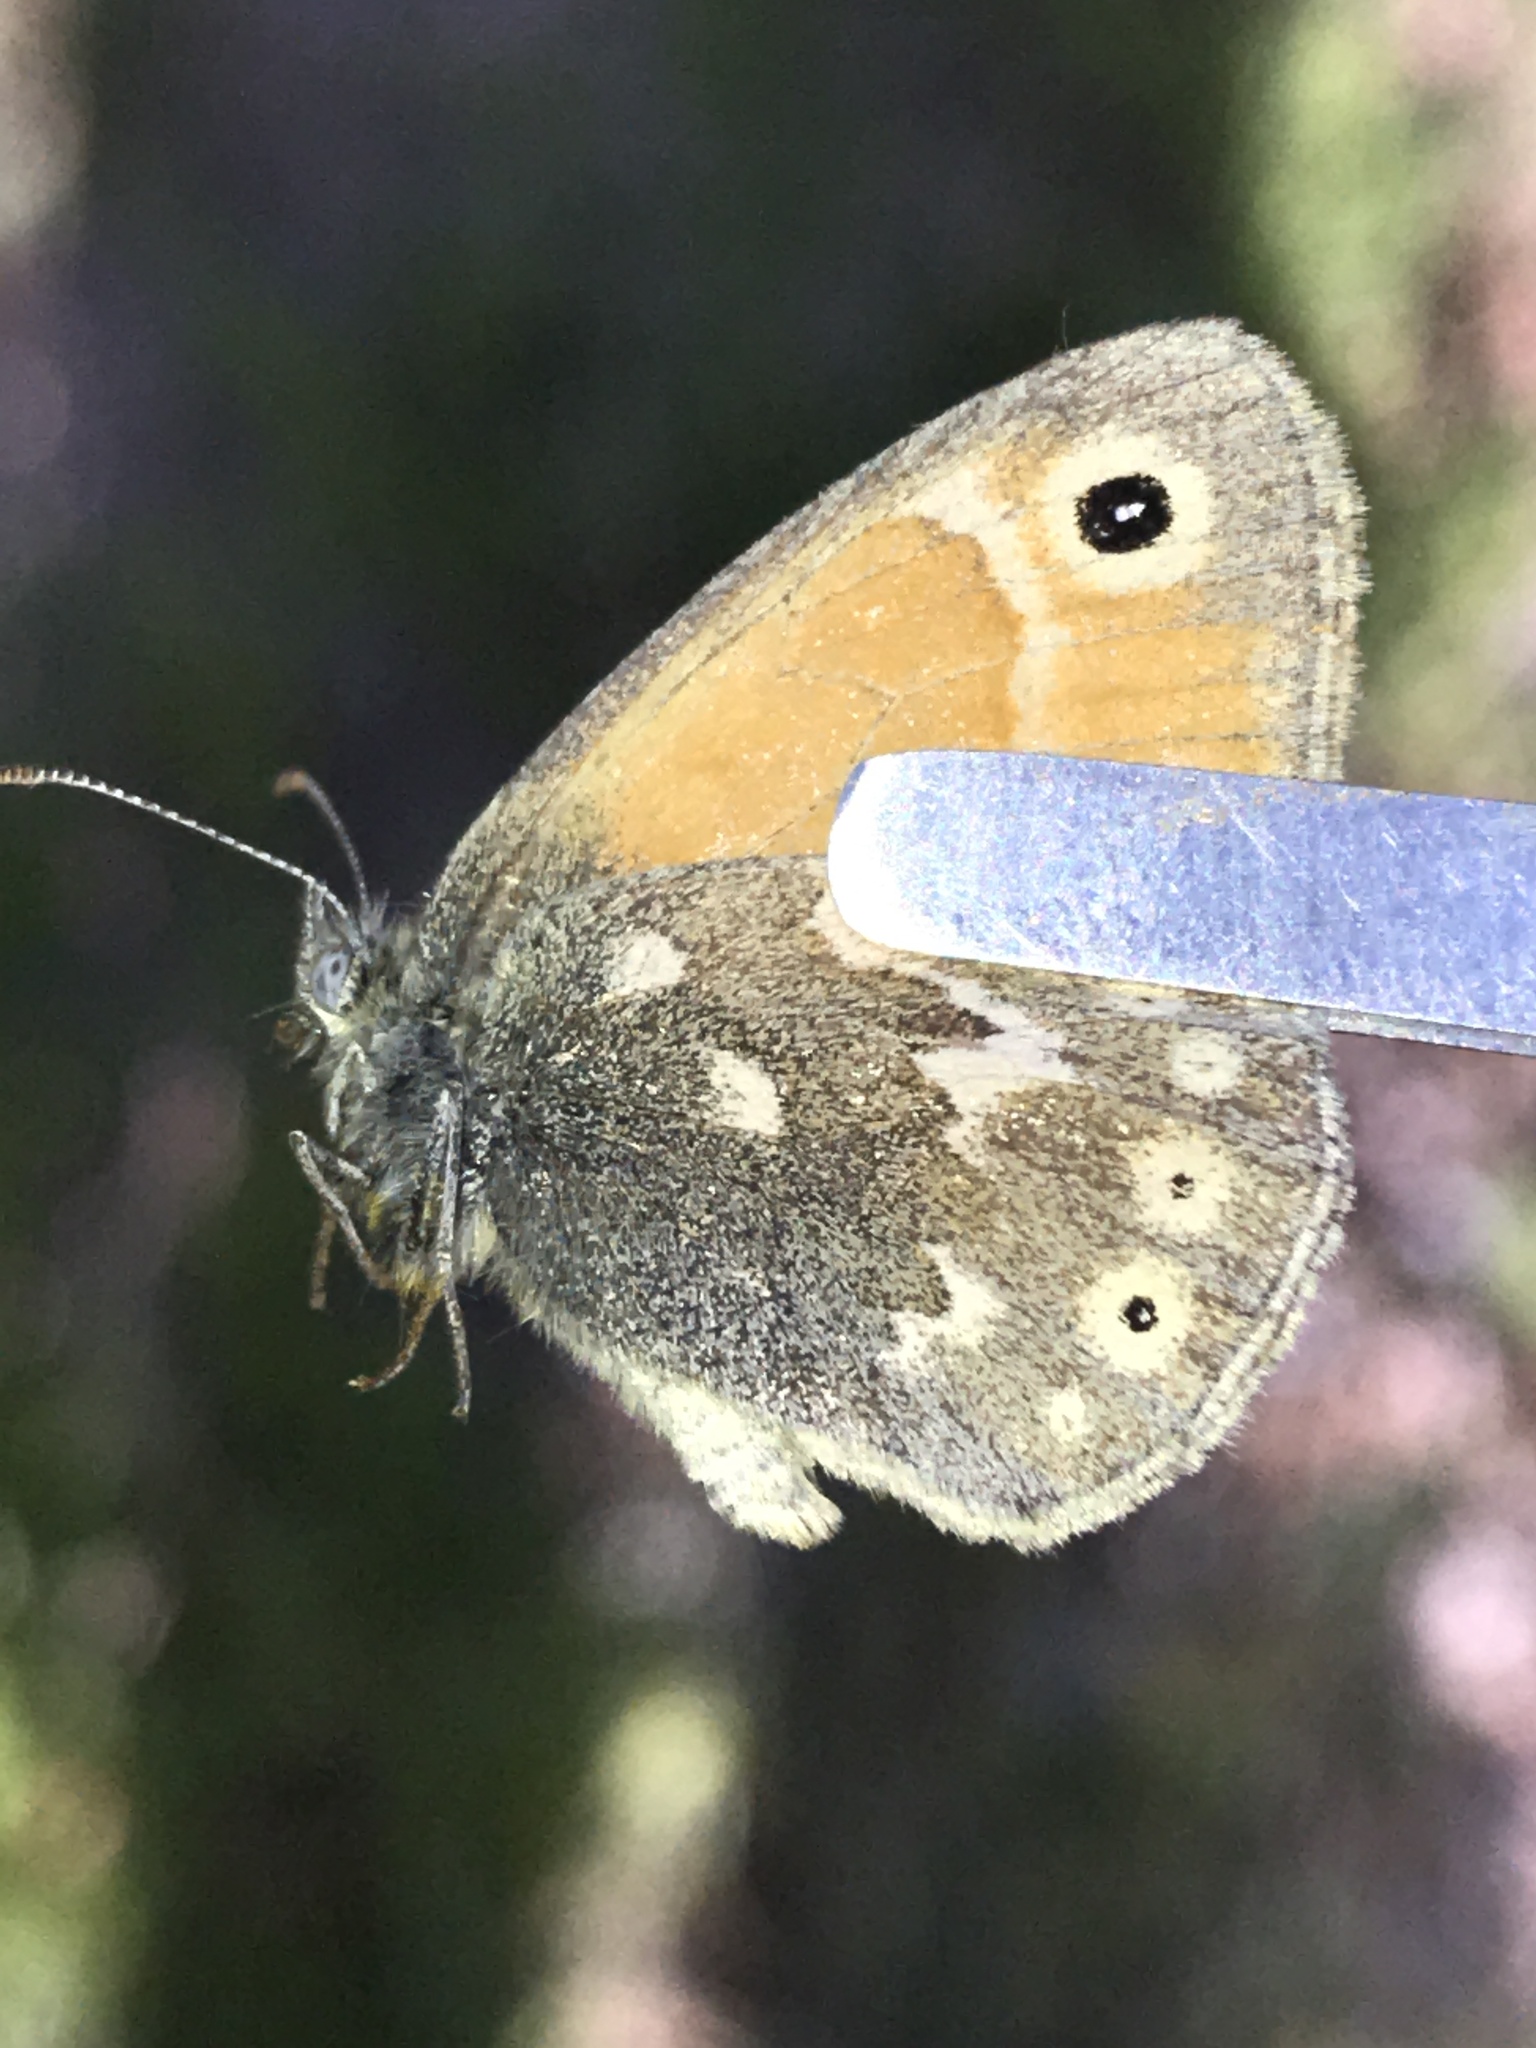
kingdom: Animalia
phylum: Arthropoda
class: Insecta
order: Lepidoptera
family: Nymphalidae
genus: Coenonympha
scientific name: Coenonympha california
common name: Common ringlet
